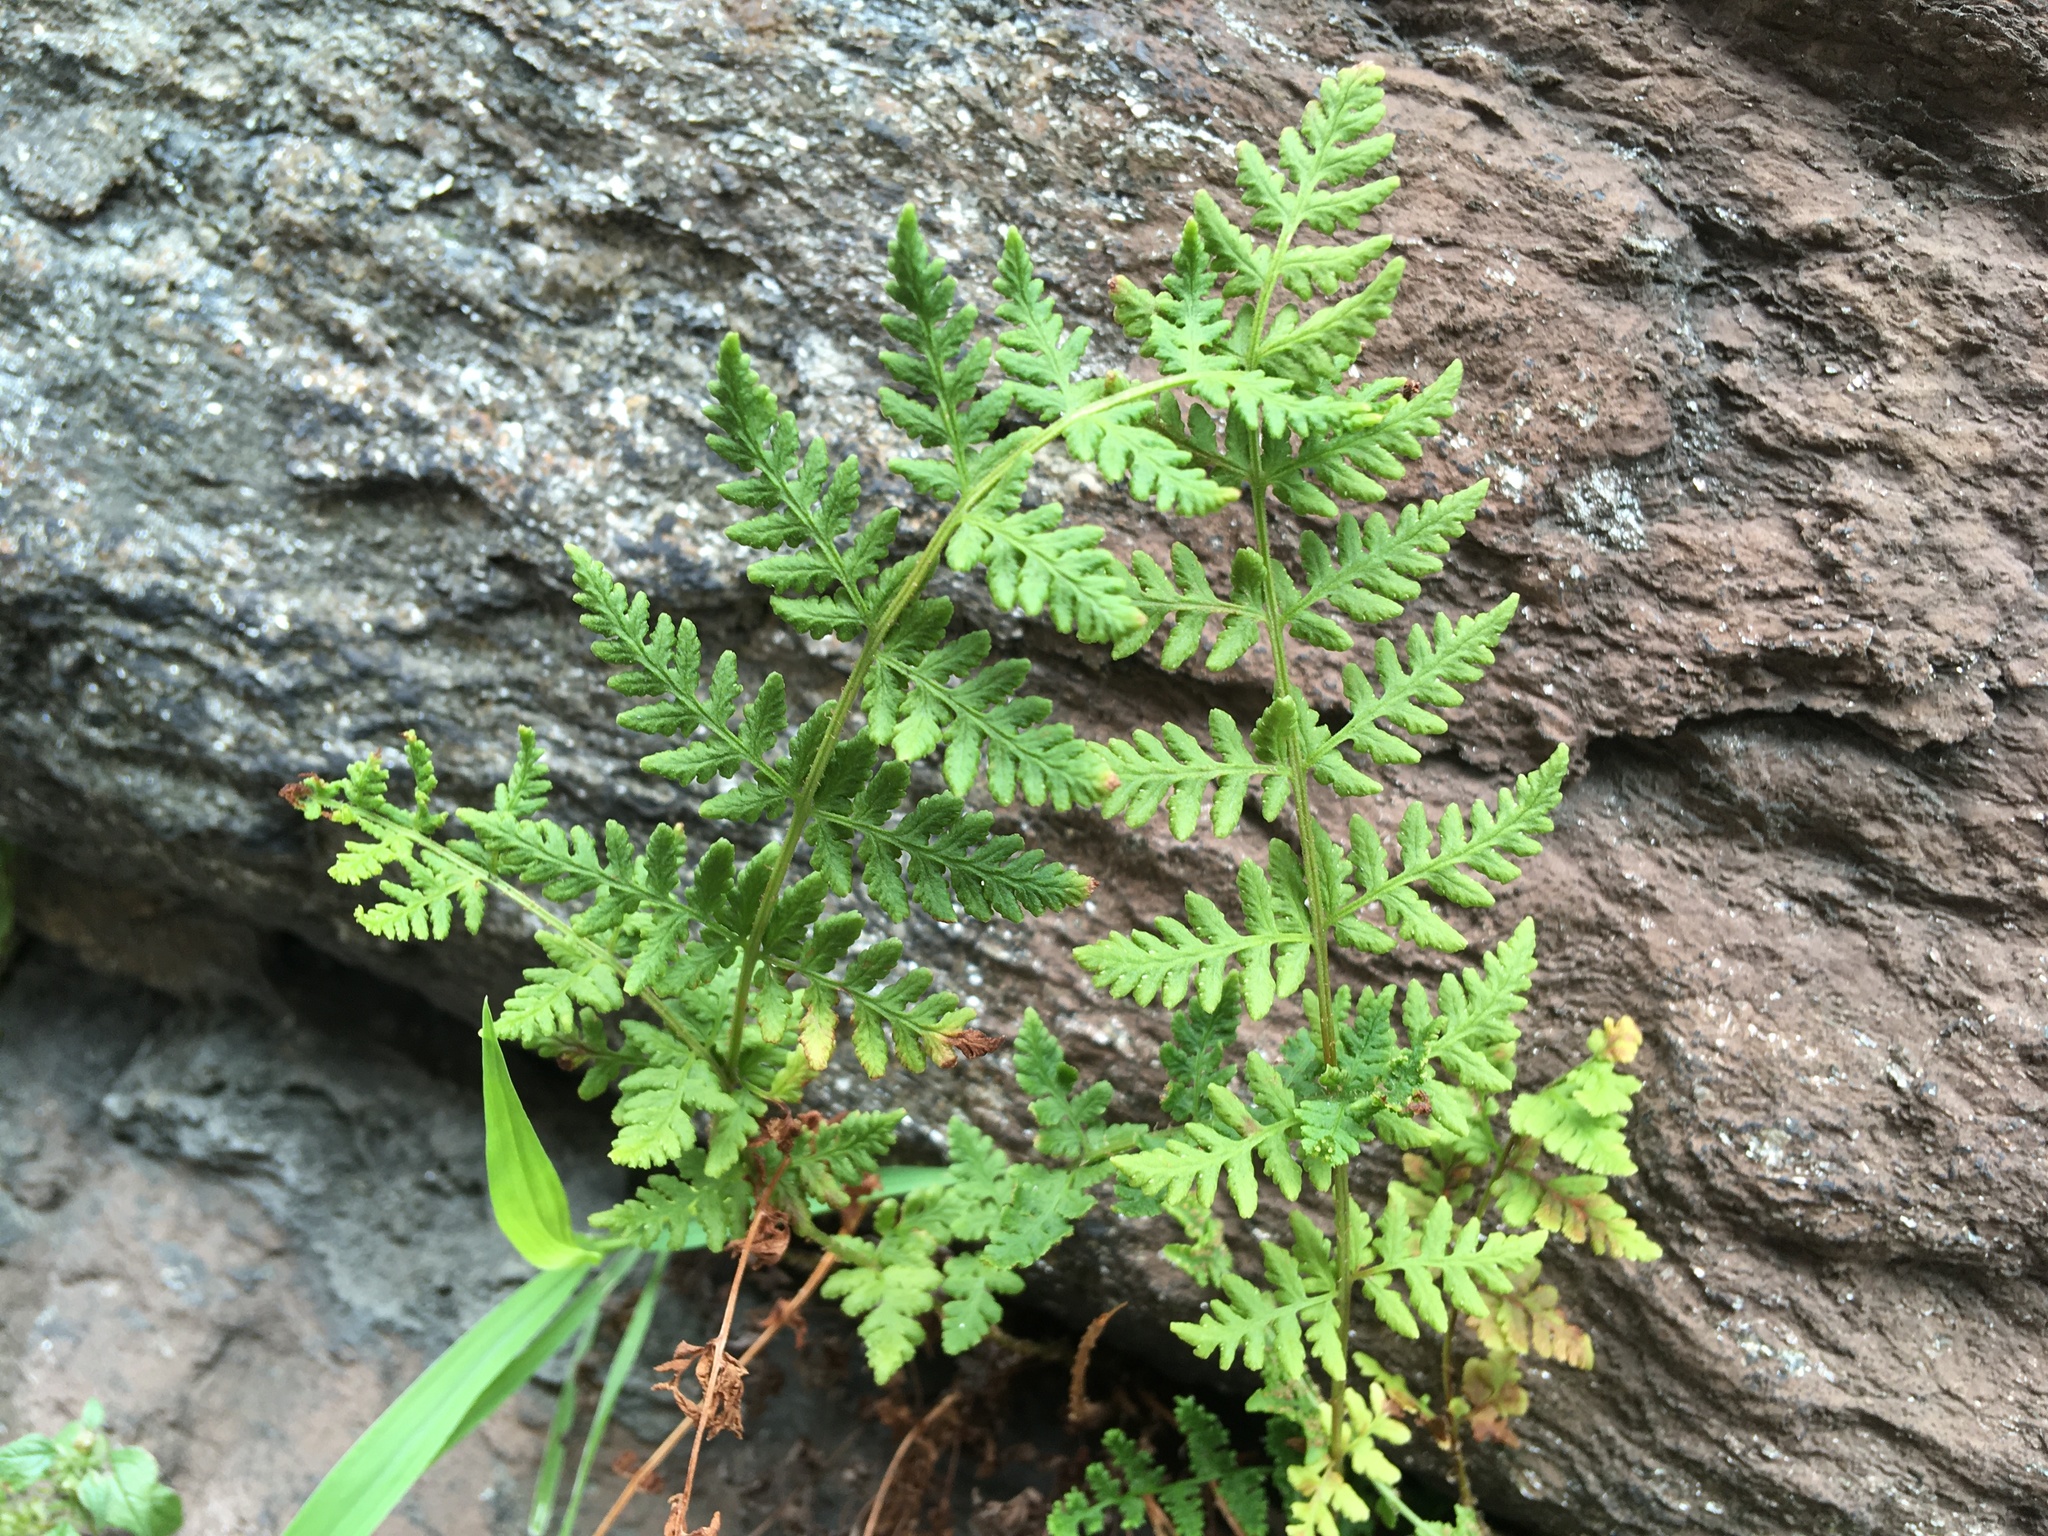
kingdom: Plantae
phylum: Tracheophyta
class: Polypodiopsida
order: Polypodiales
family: Woodsiaceae
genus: Physematium
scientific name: Physematium obtusum
